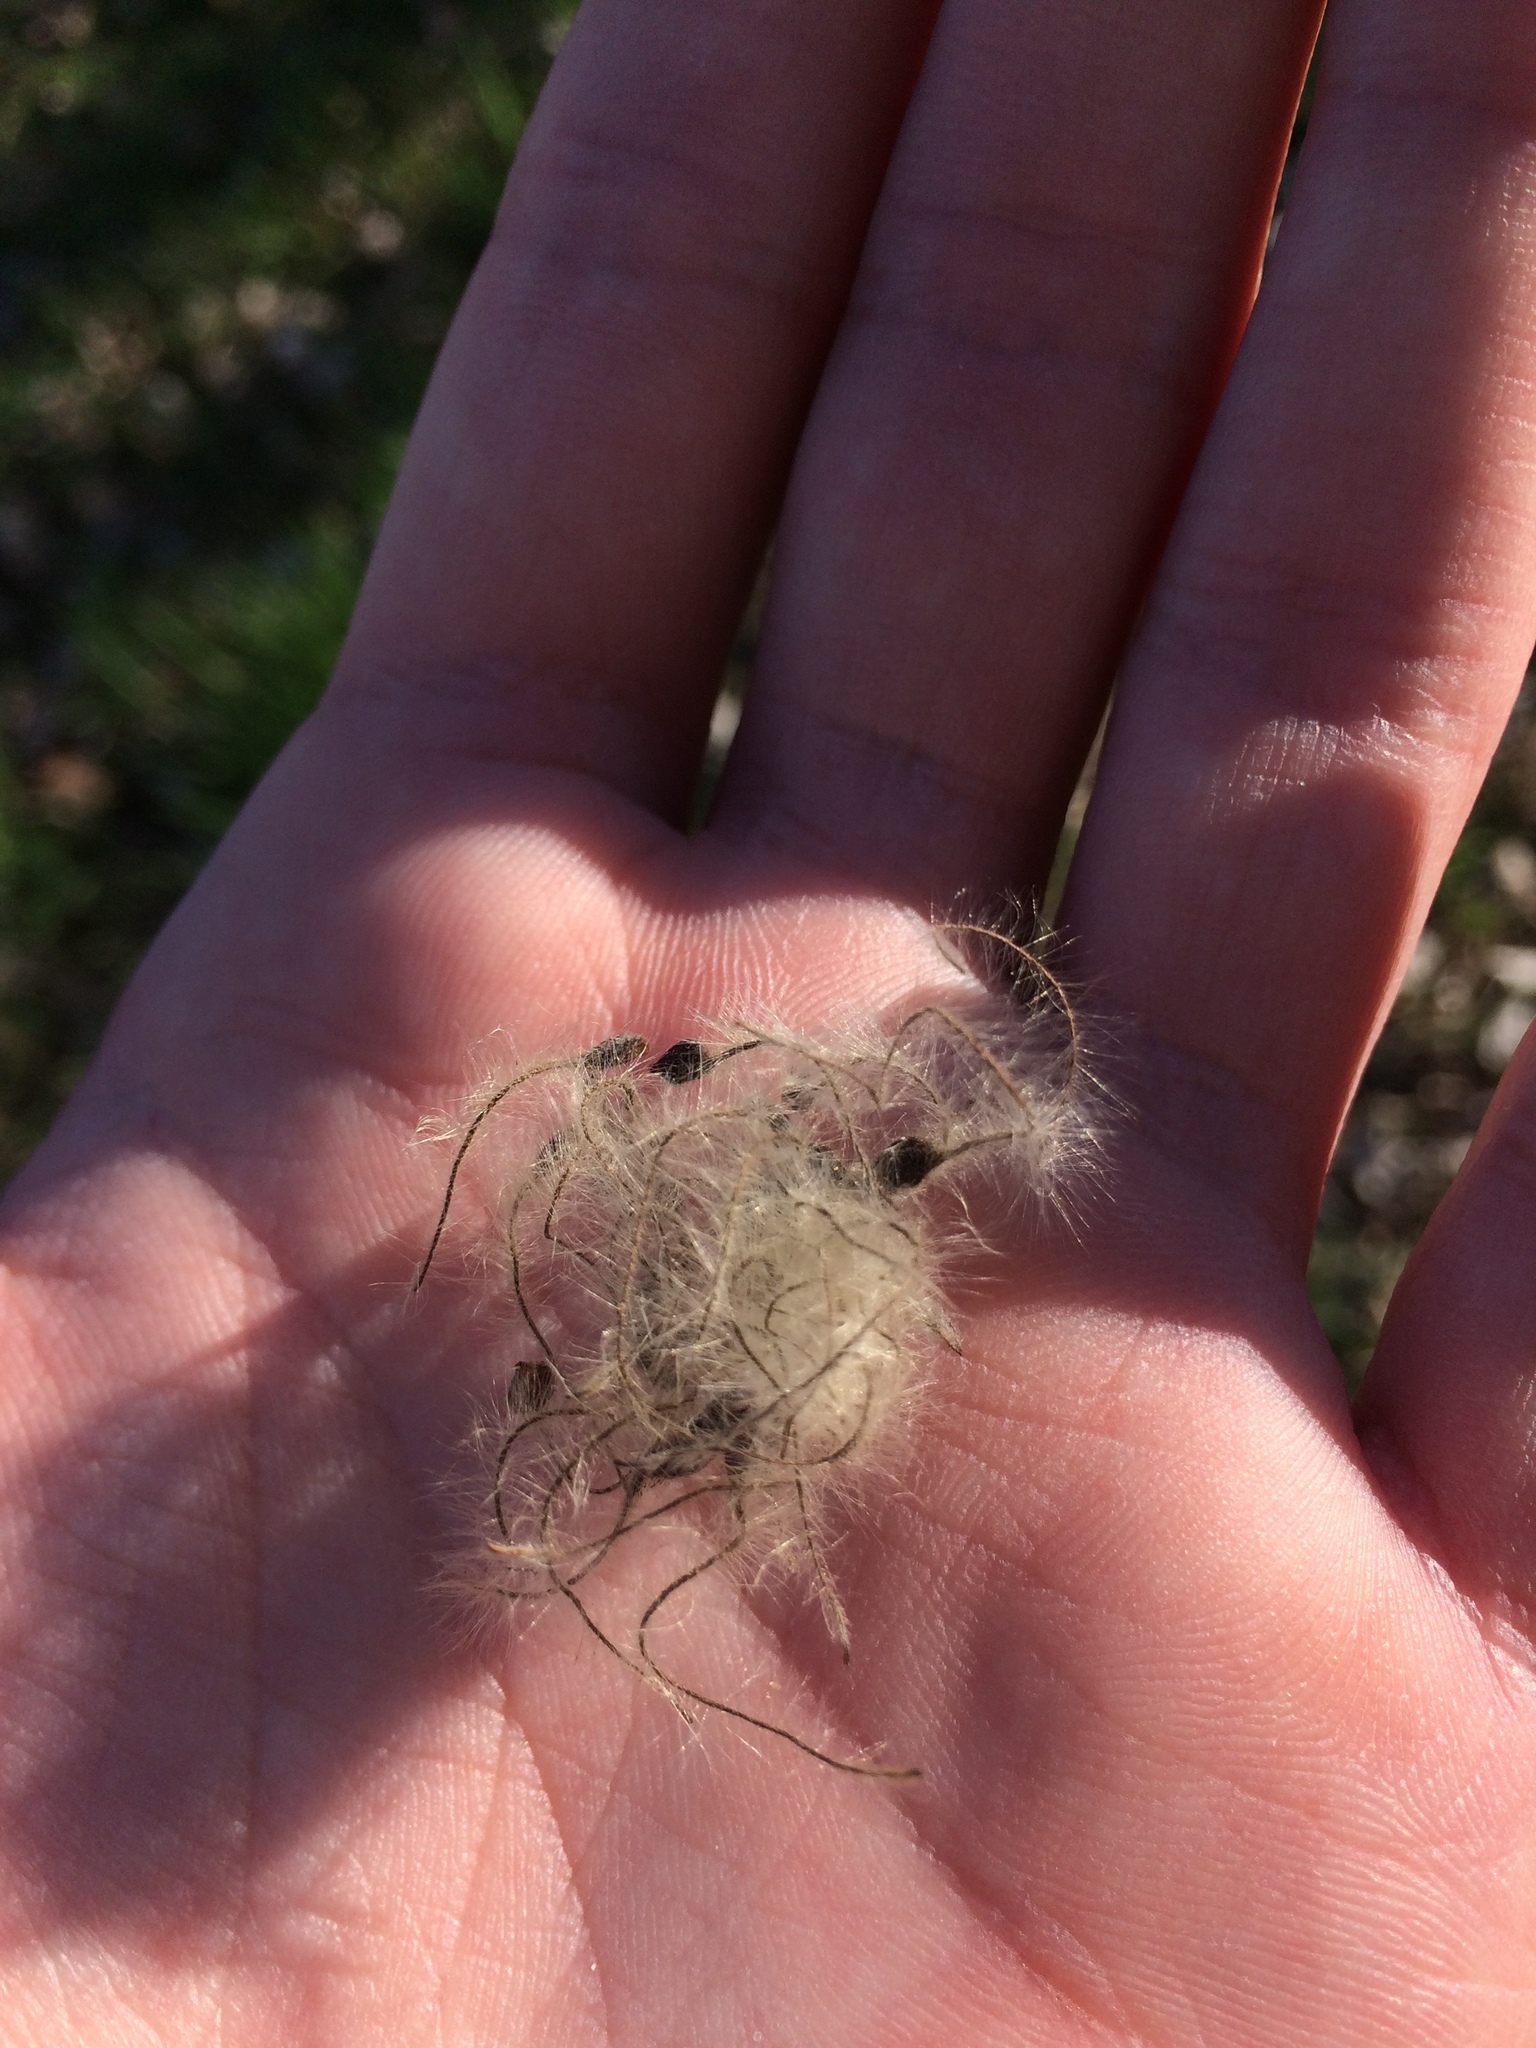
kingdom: Plantae
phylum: Tracheophyta
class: Magnoliopsida
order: Ranunculales
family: Ranunculaceae
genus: Clematis
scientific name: Clematis vitalba
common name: Evergreen clematis
